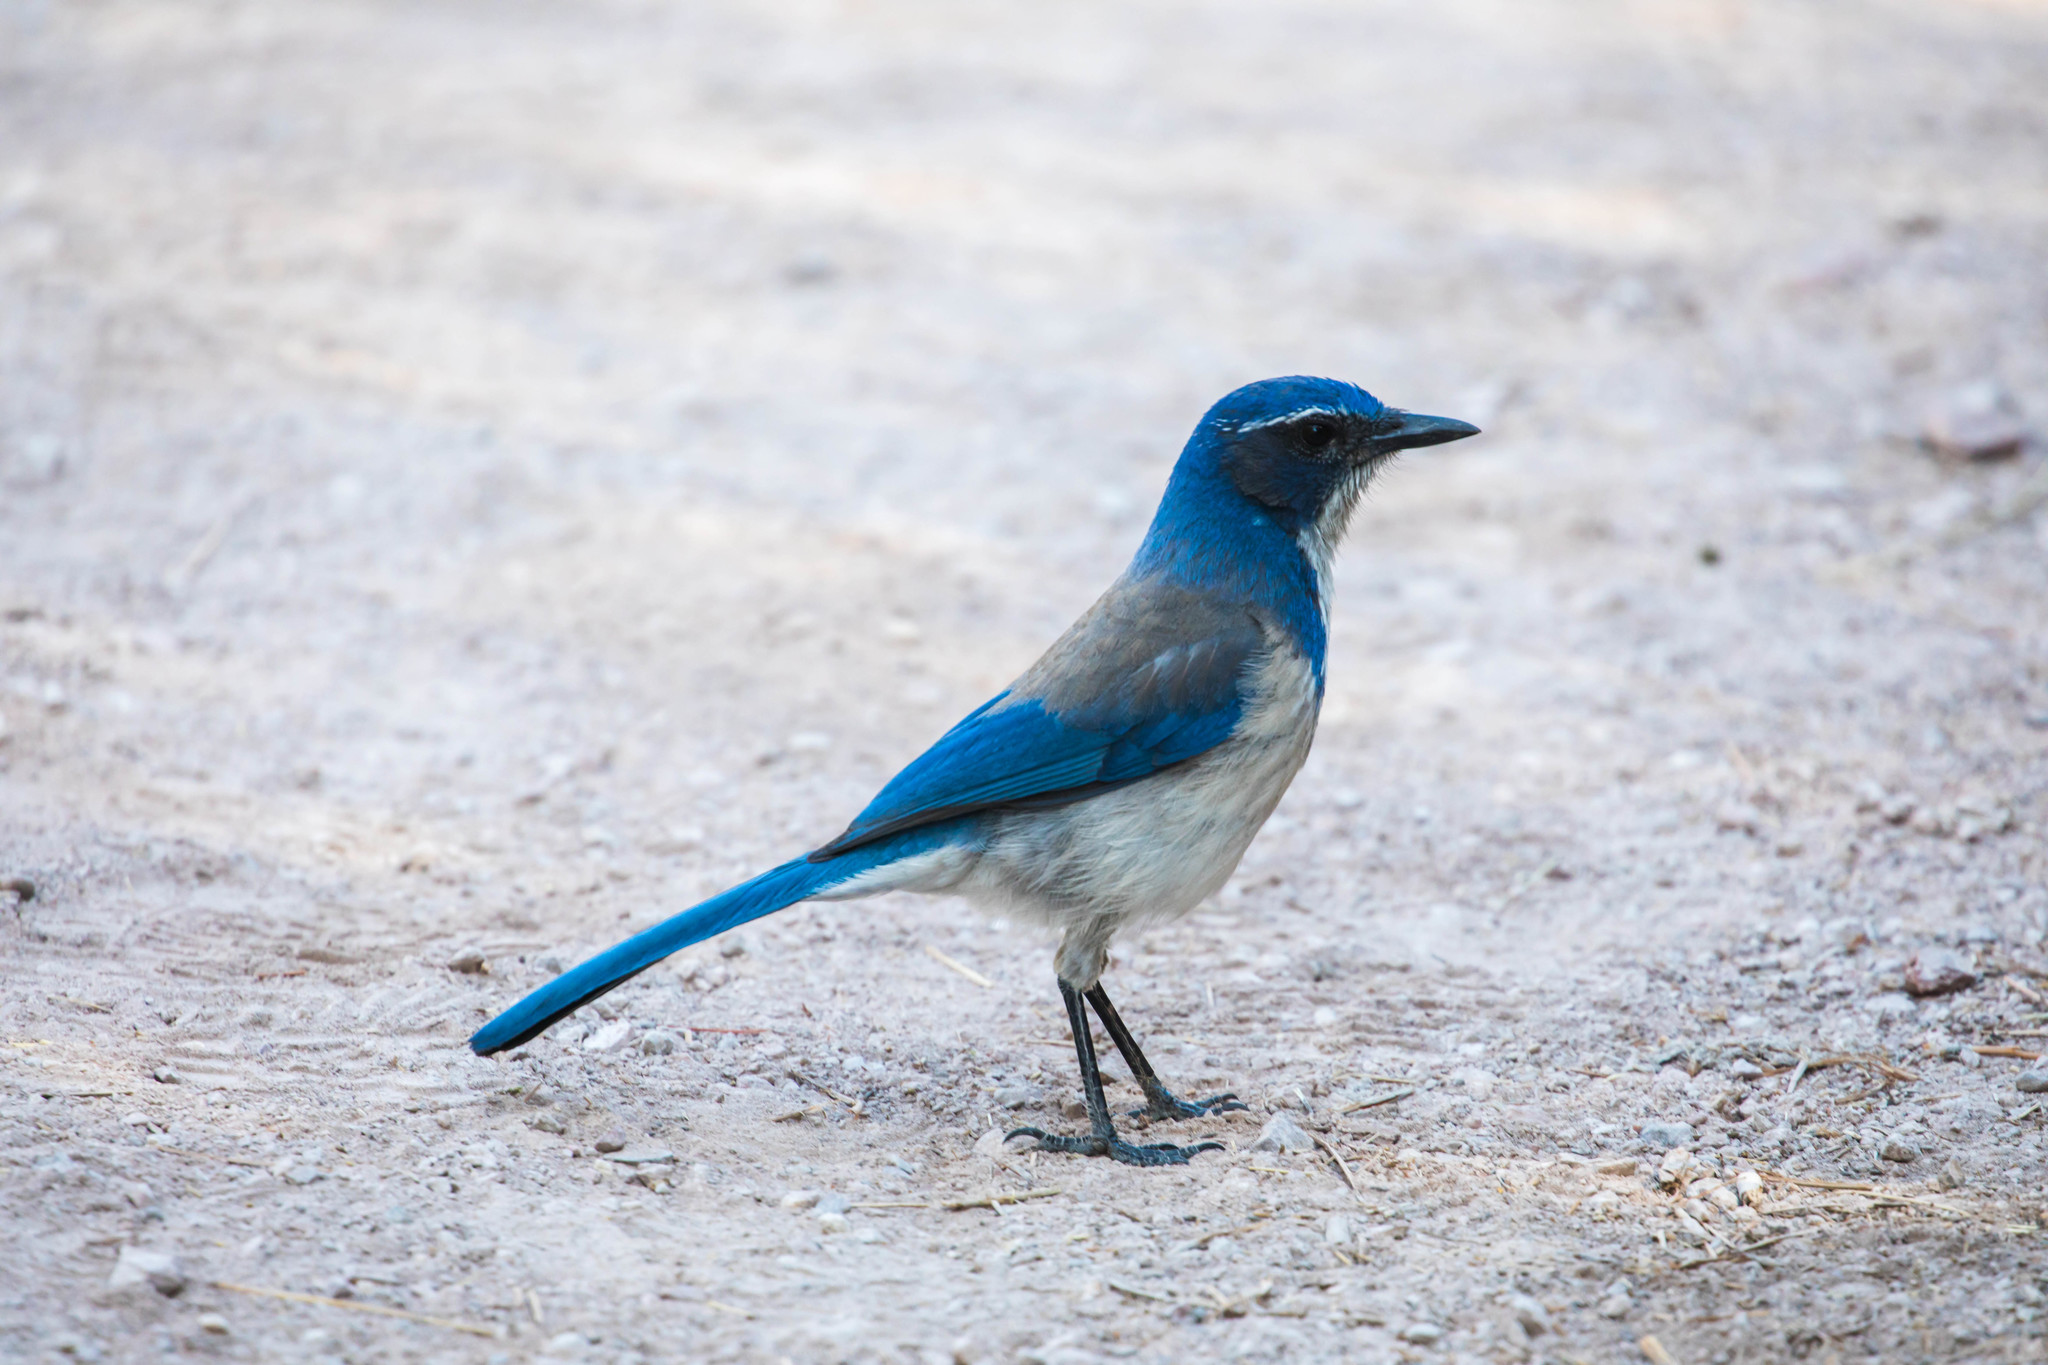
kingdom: Animalia
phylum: Chordata
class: Aves
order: Passeriformes
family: Corvidae
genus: Aphelocoma
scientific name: Aphelocoma californica
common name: California scrub-jay
